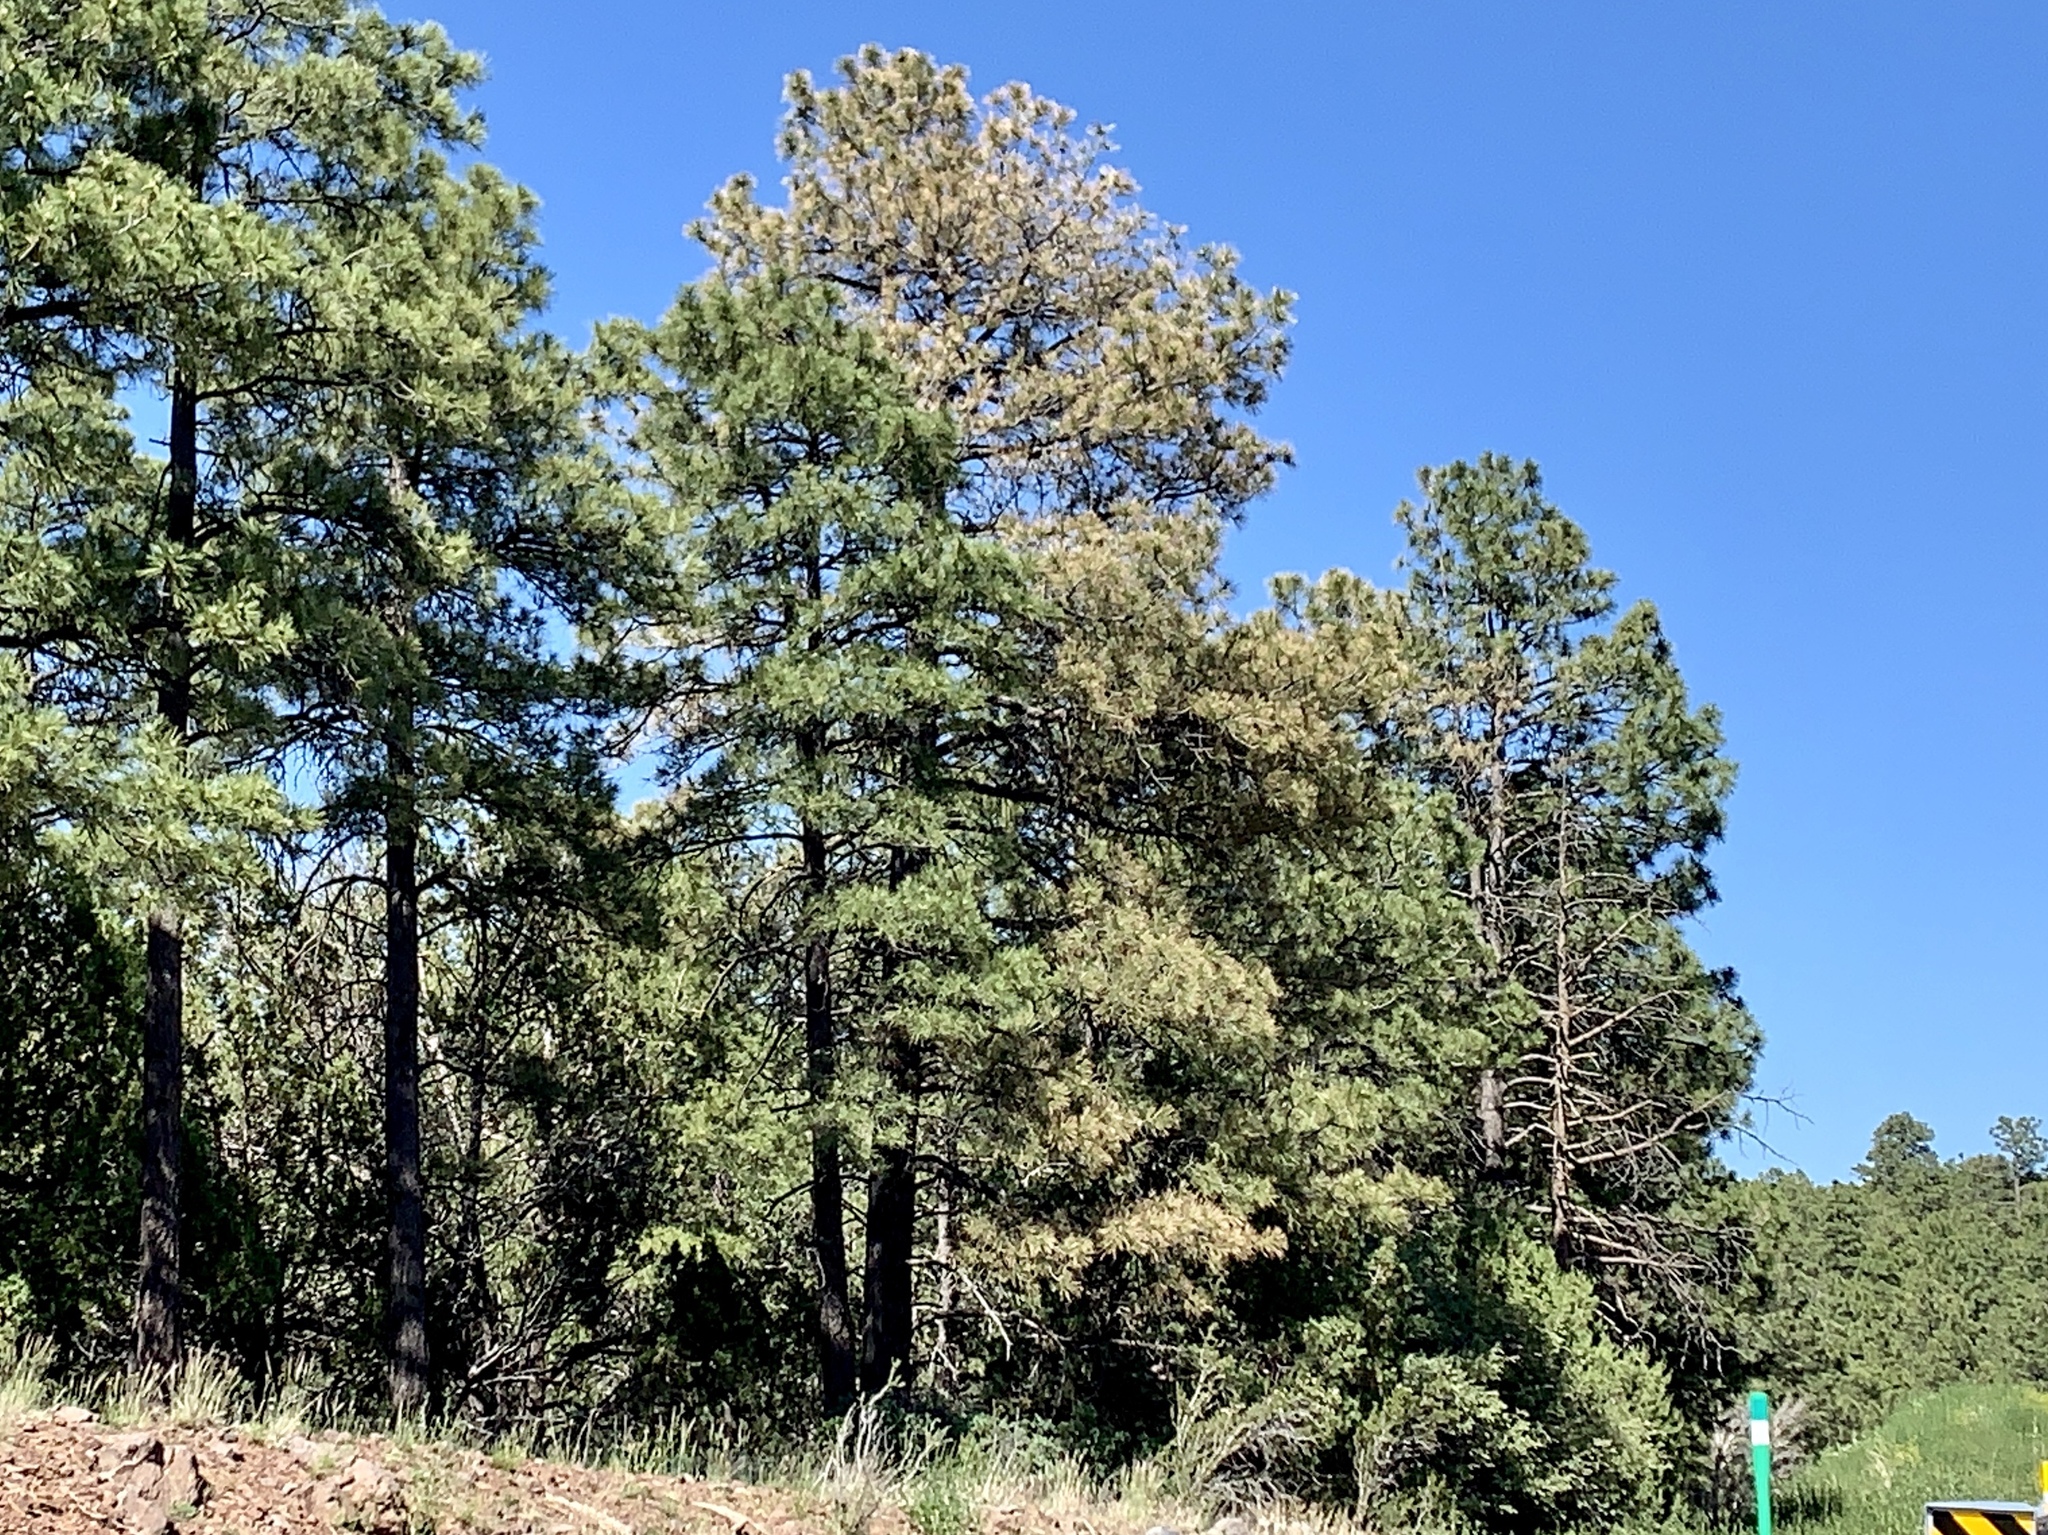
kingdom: Plantae
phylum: Tracheophyta
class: Pinopsida
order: Pinales
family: Pinaceae
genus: Pinus
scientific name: Pinus ponderosa
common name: Western yellow-pine
